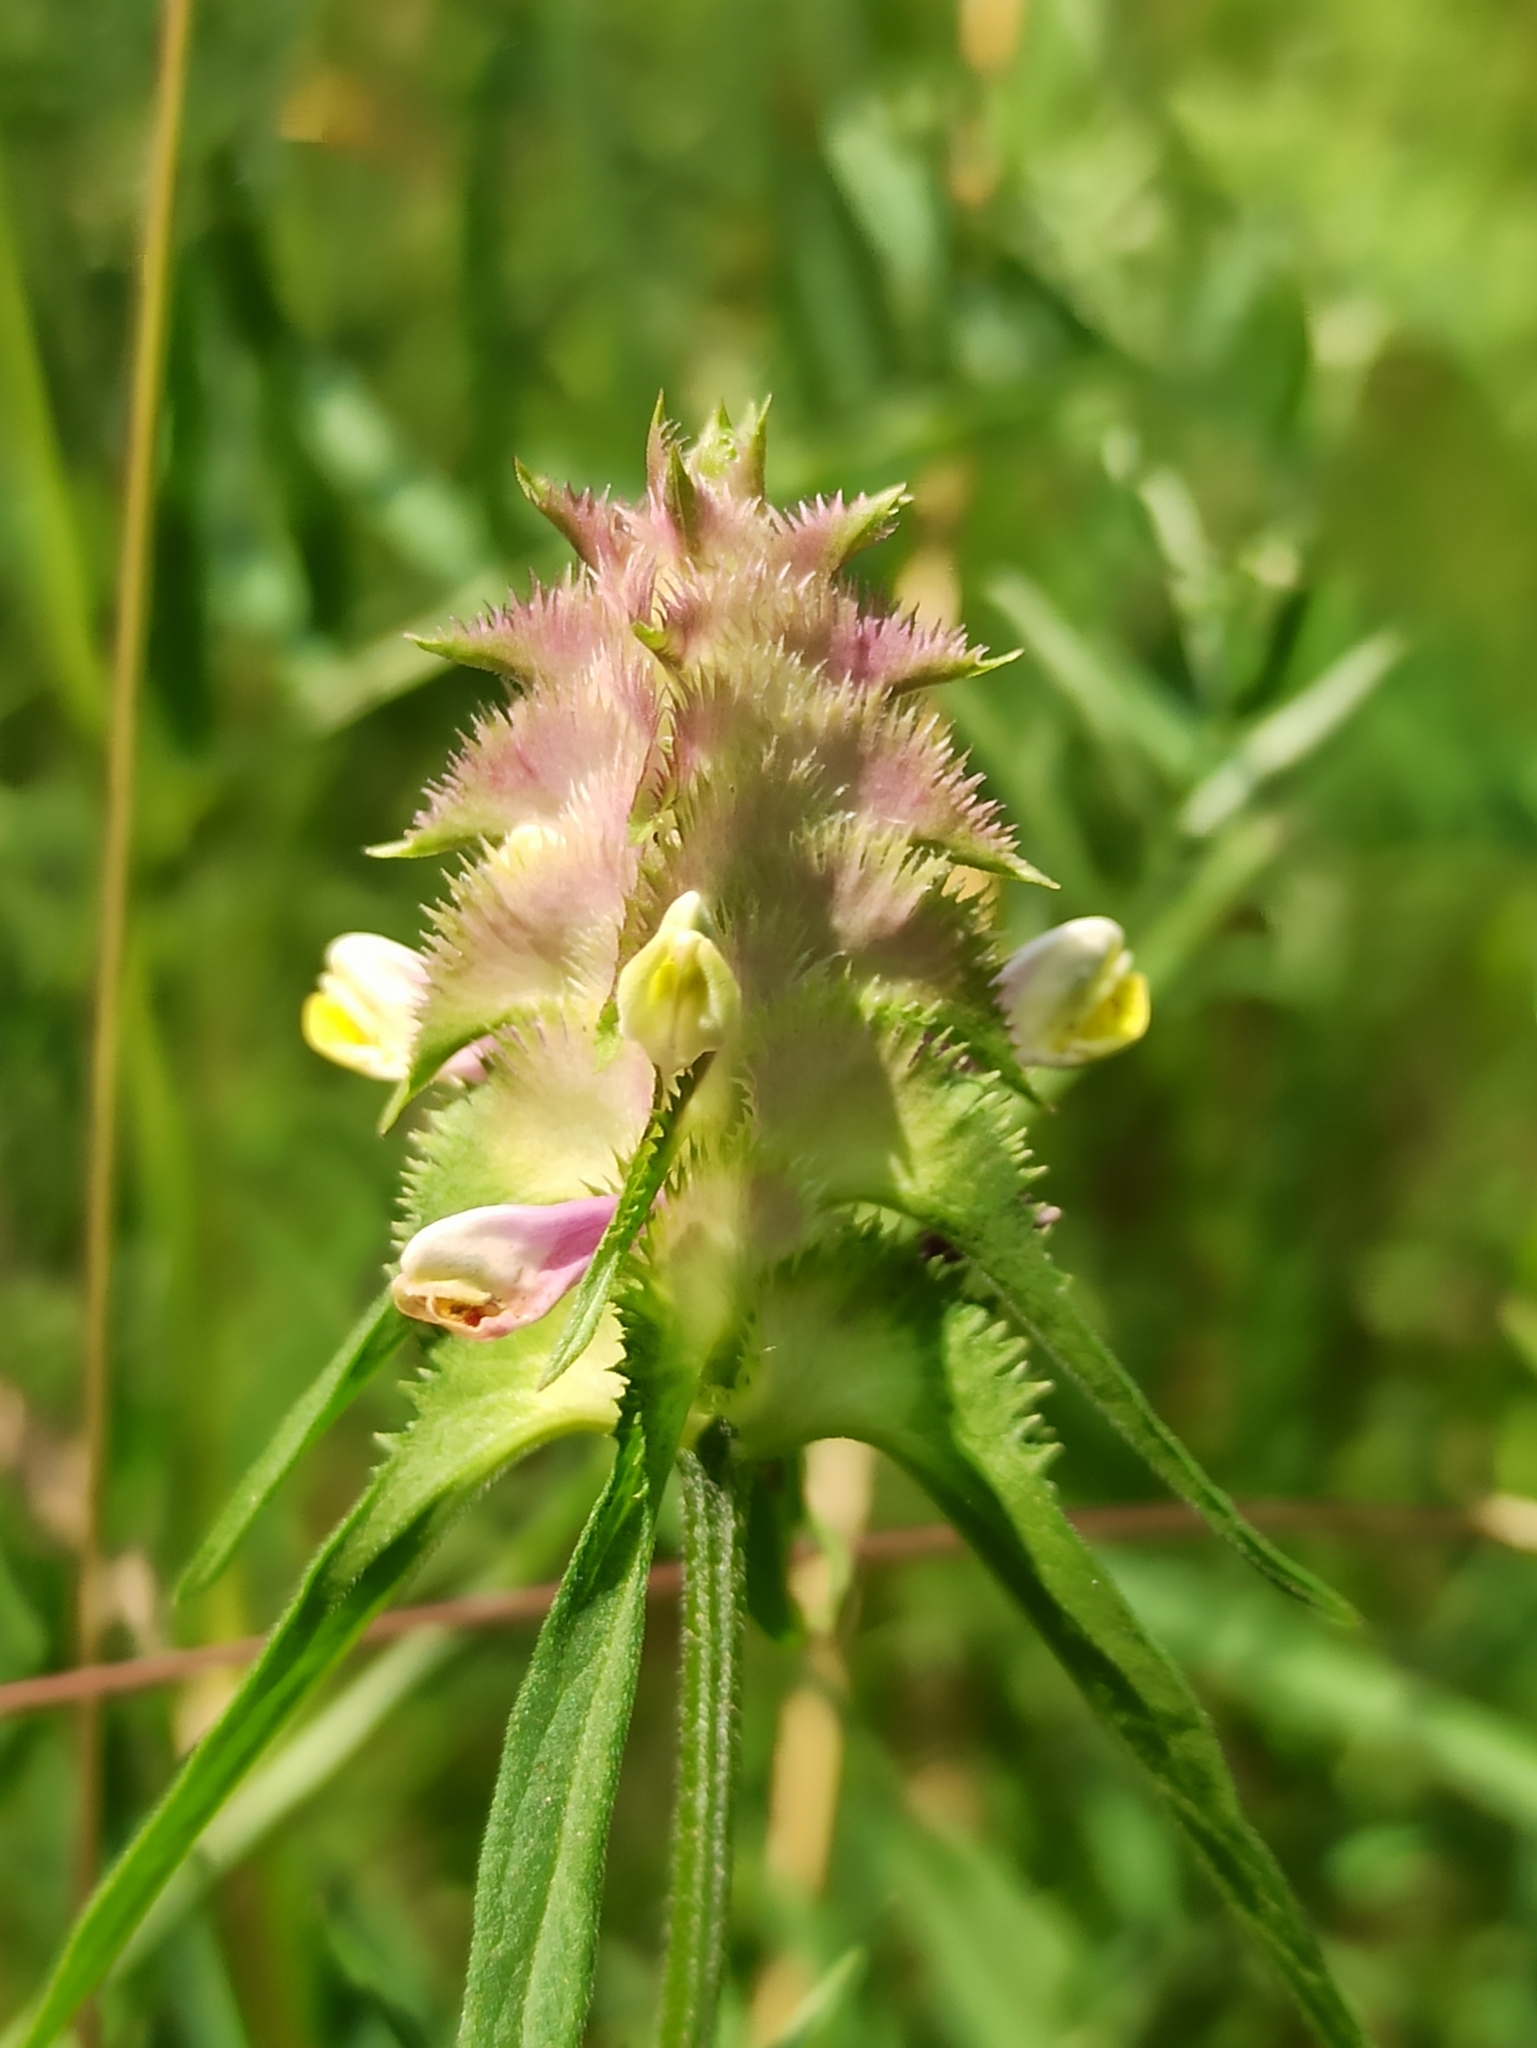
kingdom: Plantae
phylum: Tracheophyta
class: Magnoliopsida
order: Lamiales
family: Orobanchaceae
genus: Melampyrum
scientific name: Melampyrum cristatum
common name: Crested cow-wheat
